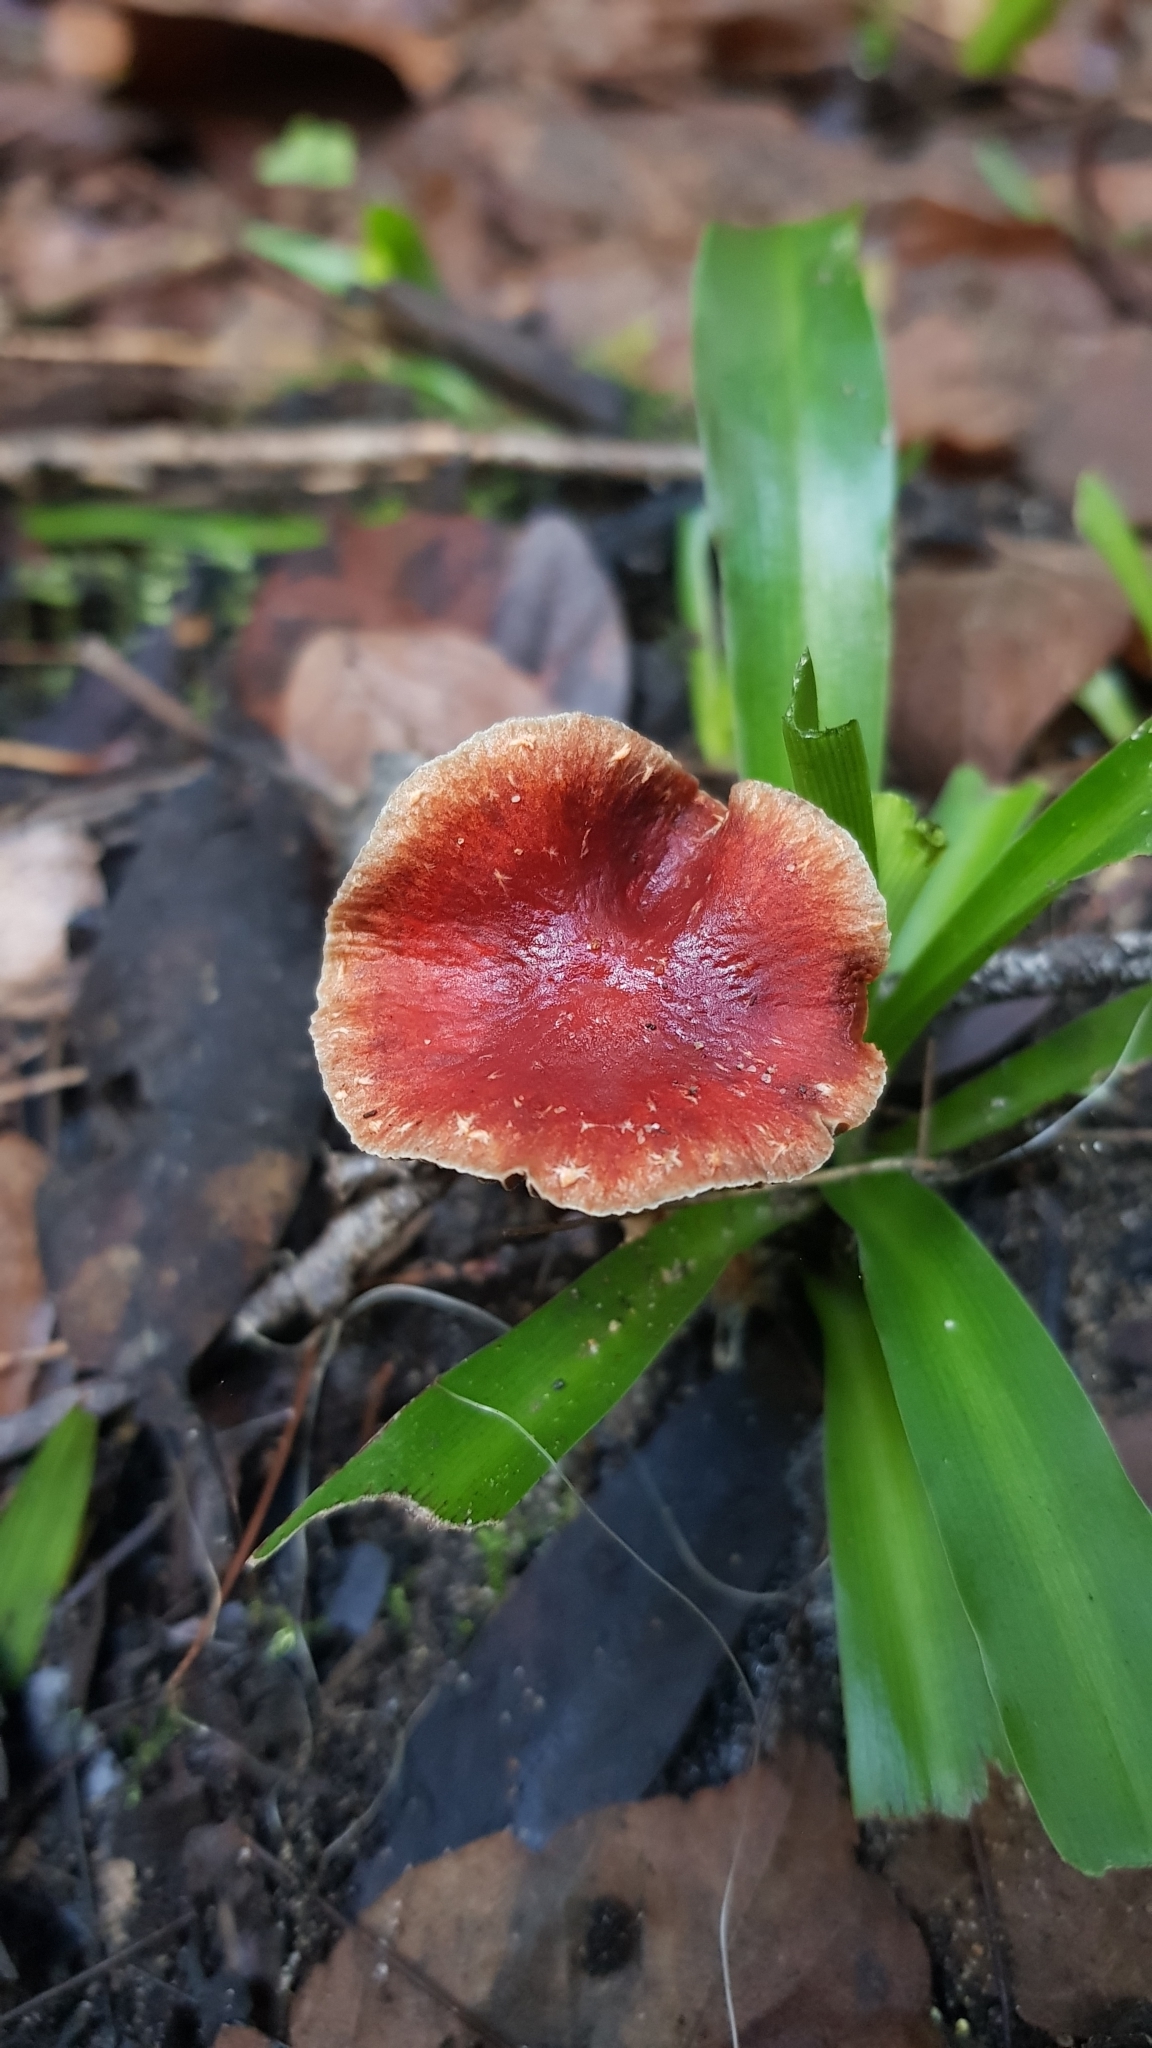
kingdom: Fungi
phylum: Basidiomycota
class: Agaricomycetes
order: Agaricales
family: Strophariaceae
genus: Leratiomyces
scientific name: Leratiomyces ceres
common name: Redlead roundhead
